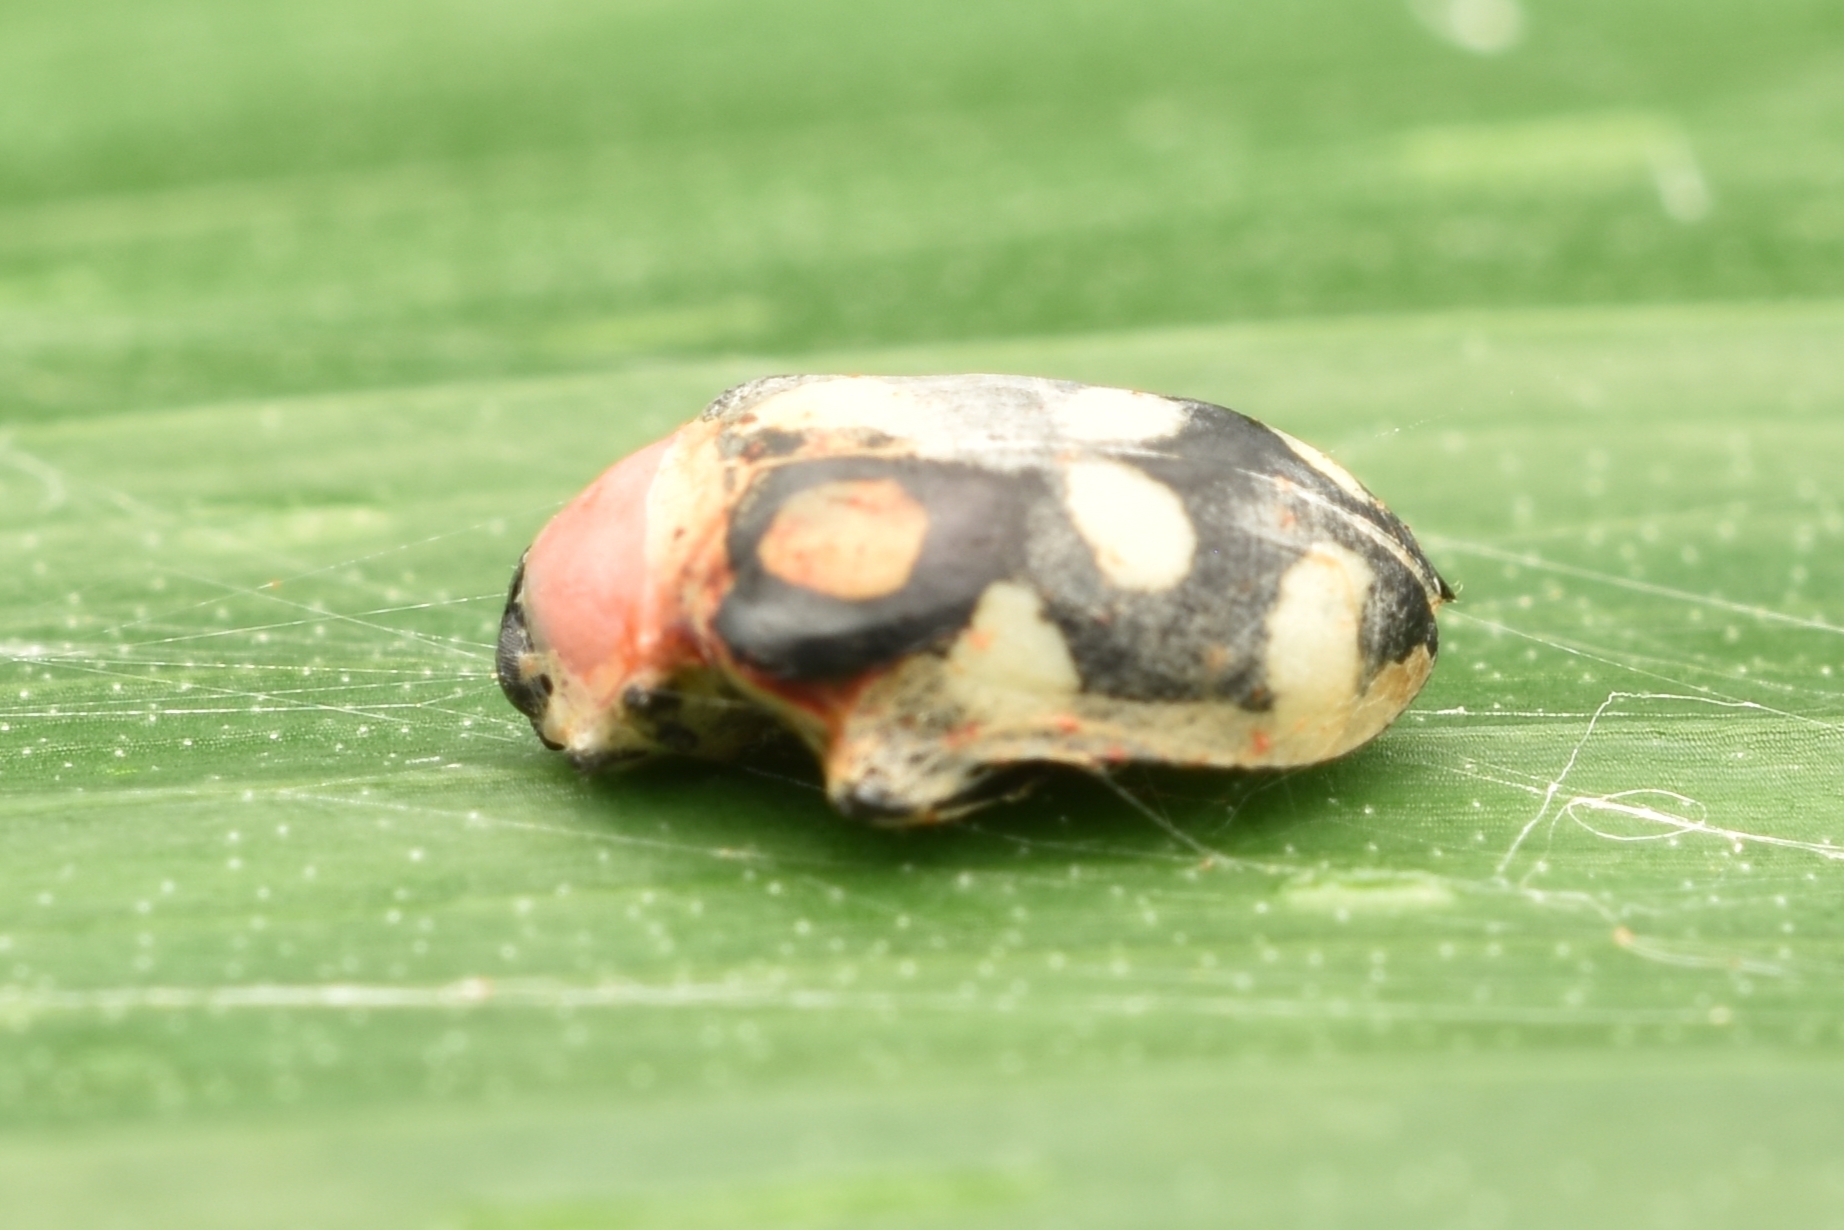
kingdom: Animalia
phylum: Arthropoda
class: Insecta
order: Coleoptera
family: Chrysomelidae
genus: Omophoita
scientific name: Omophoita aequinoctialis
